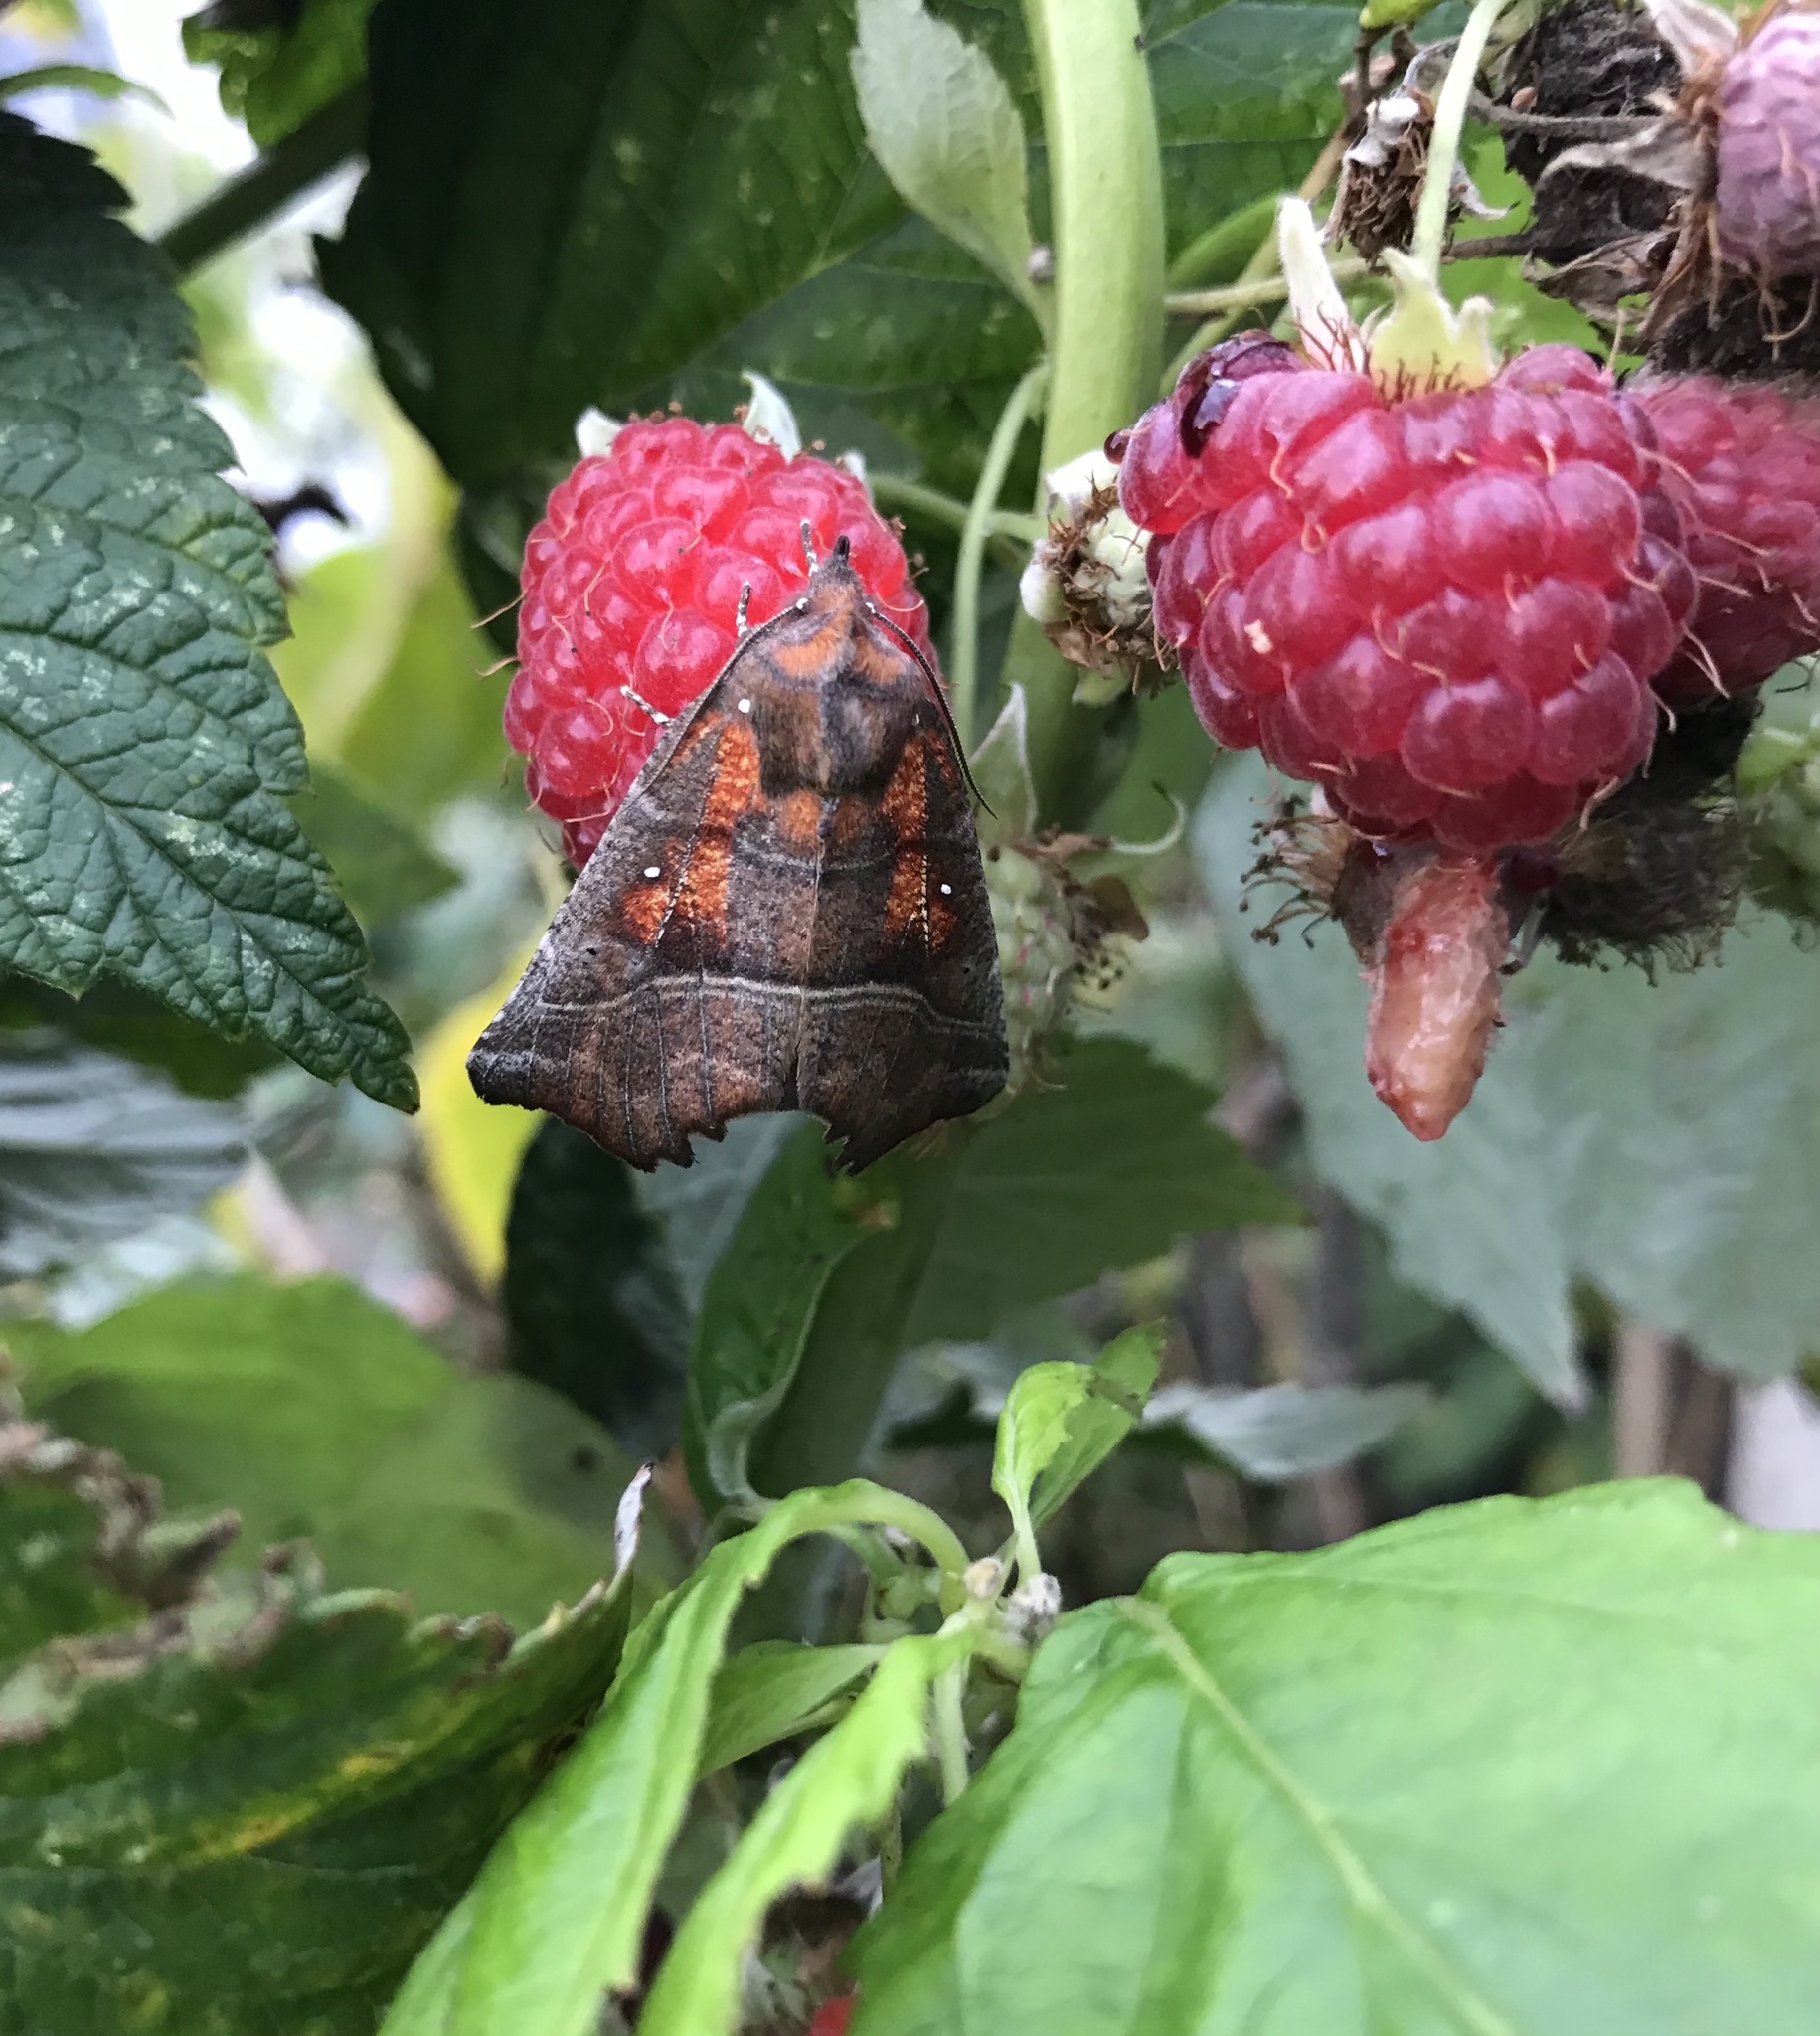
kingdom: Animalia
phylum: Arthropoda
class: Insecta
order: Lepidoptera
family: Erebidae
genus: Scoliopteryx
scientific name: Scoliopteryx libatrix
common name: Herald
